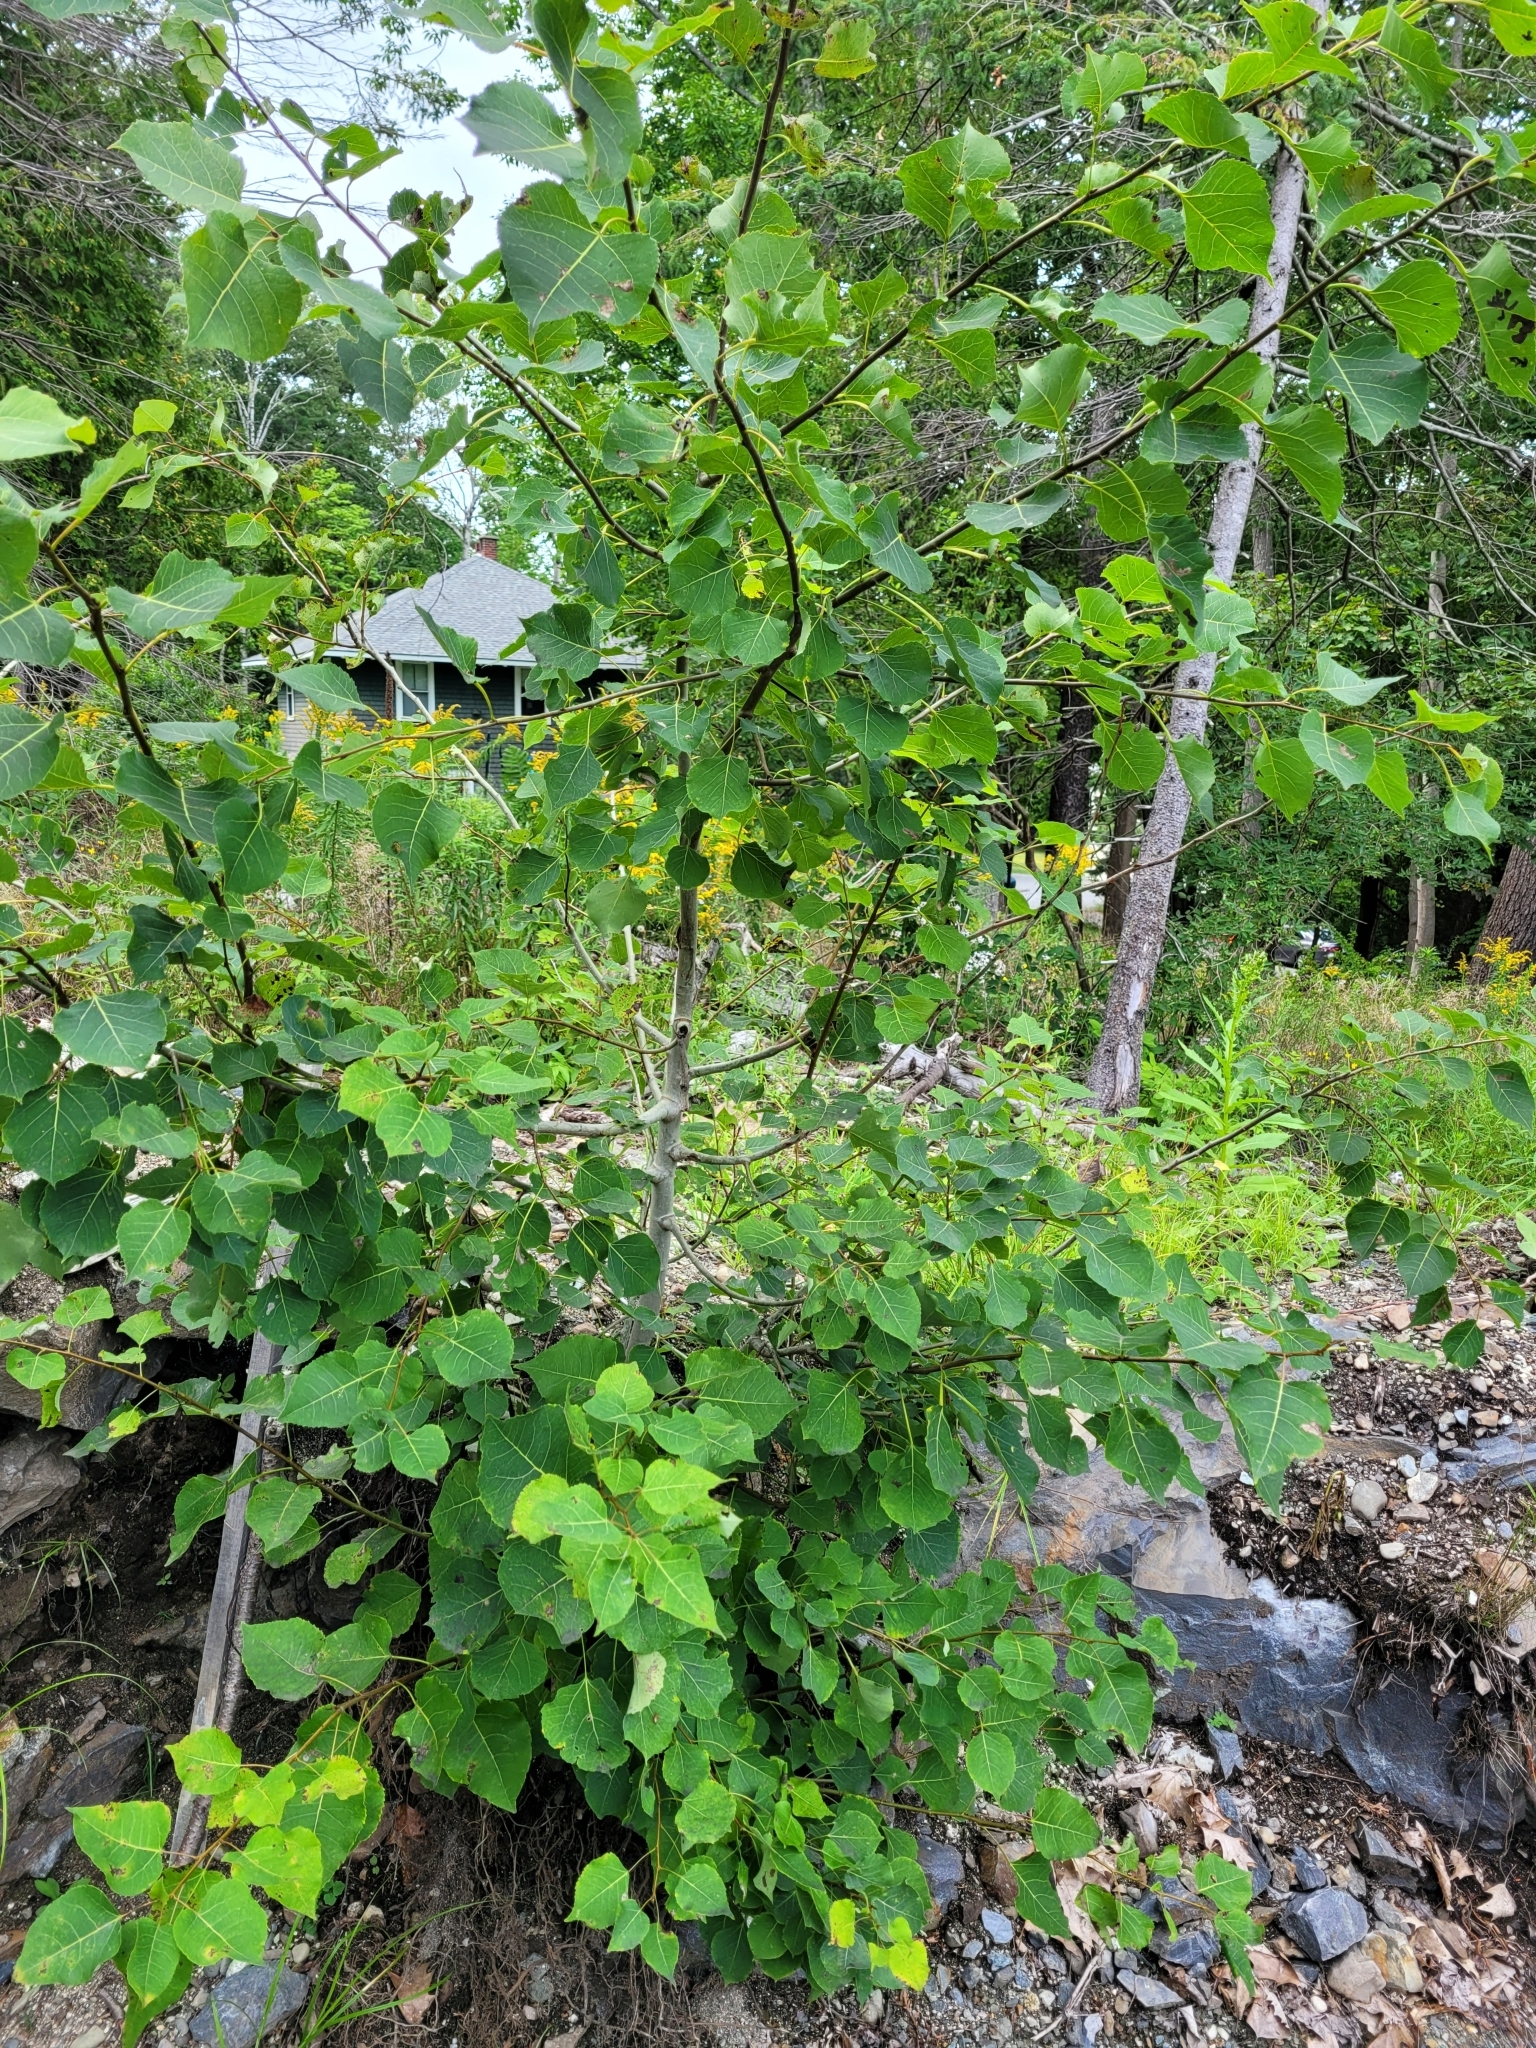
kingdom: Plantae
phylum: Tracheophyta
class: Magnoliopsida
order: Malpighiales
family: Salicaceae
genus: Populus
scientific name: Populus tremuloides
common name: Quaking aspen
